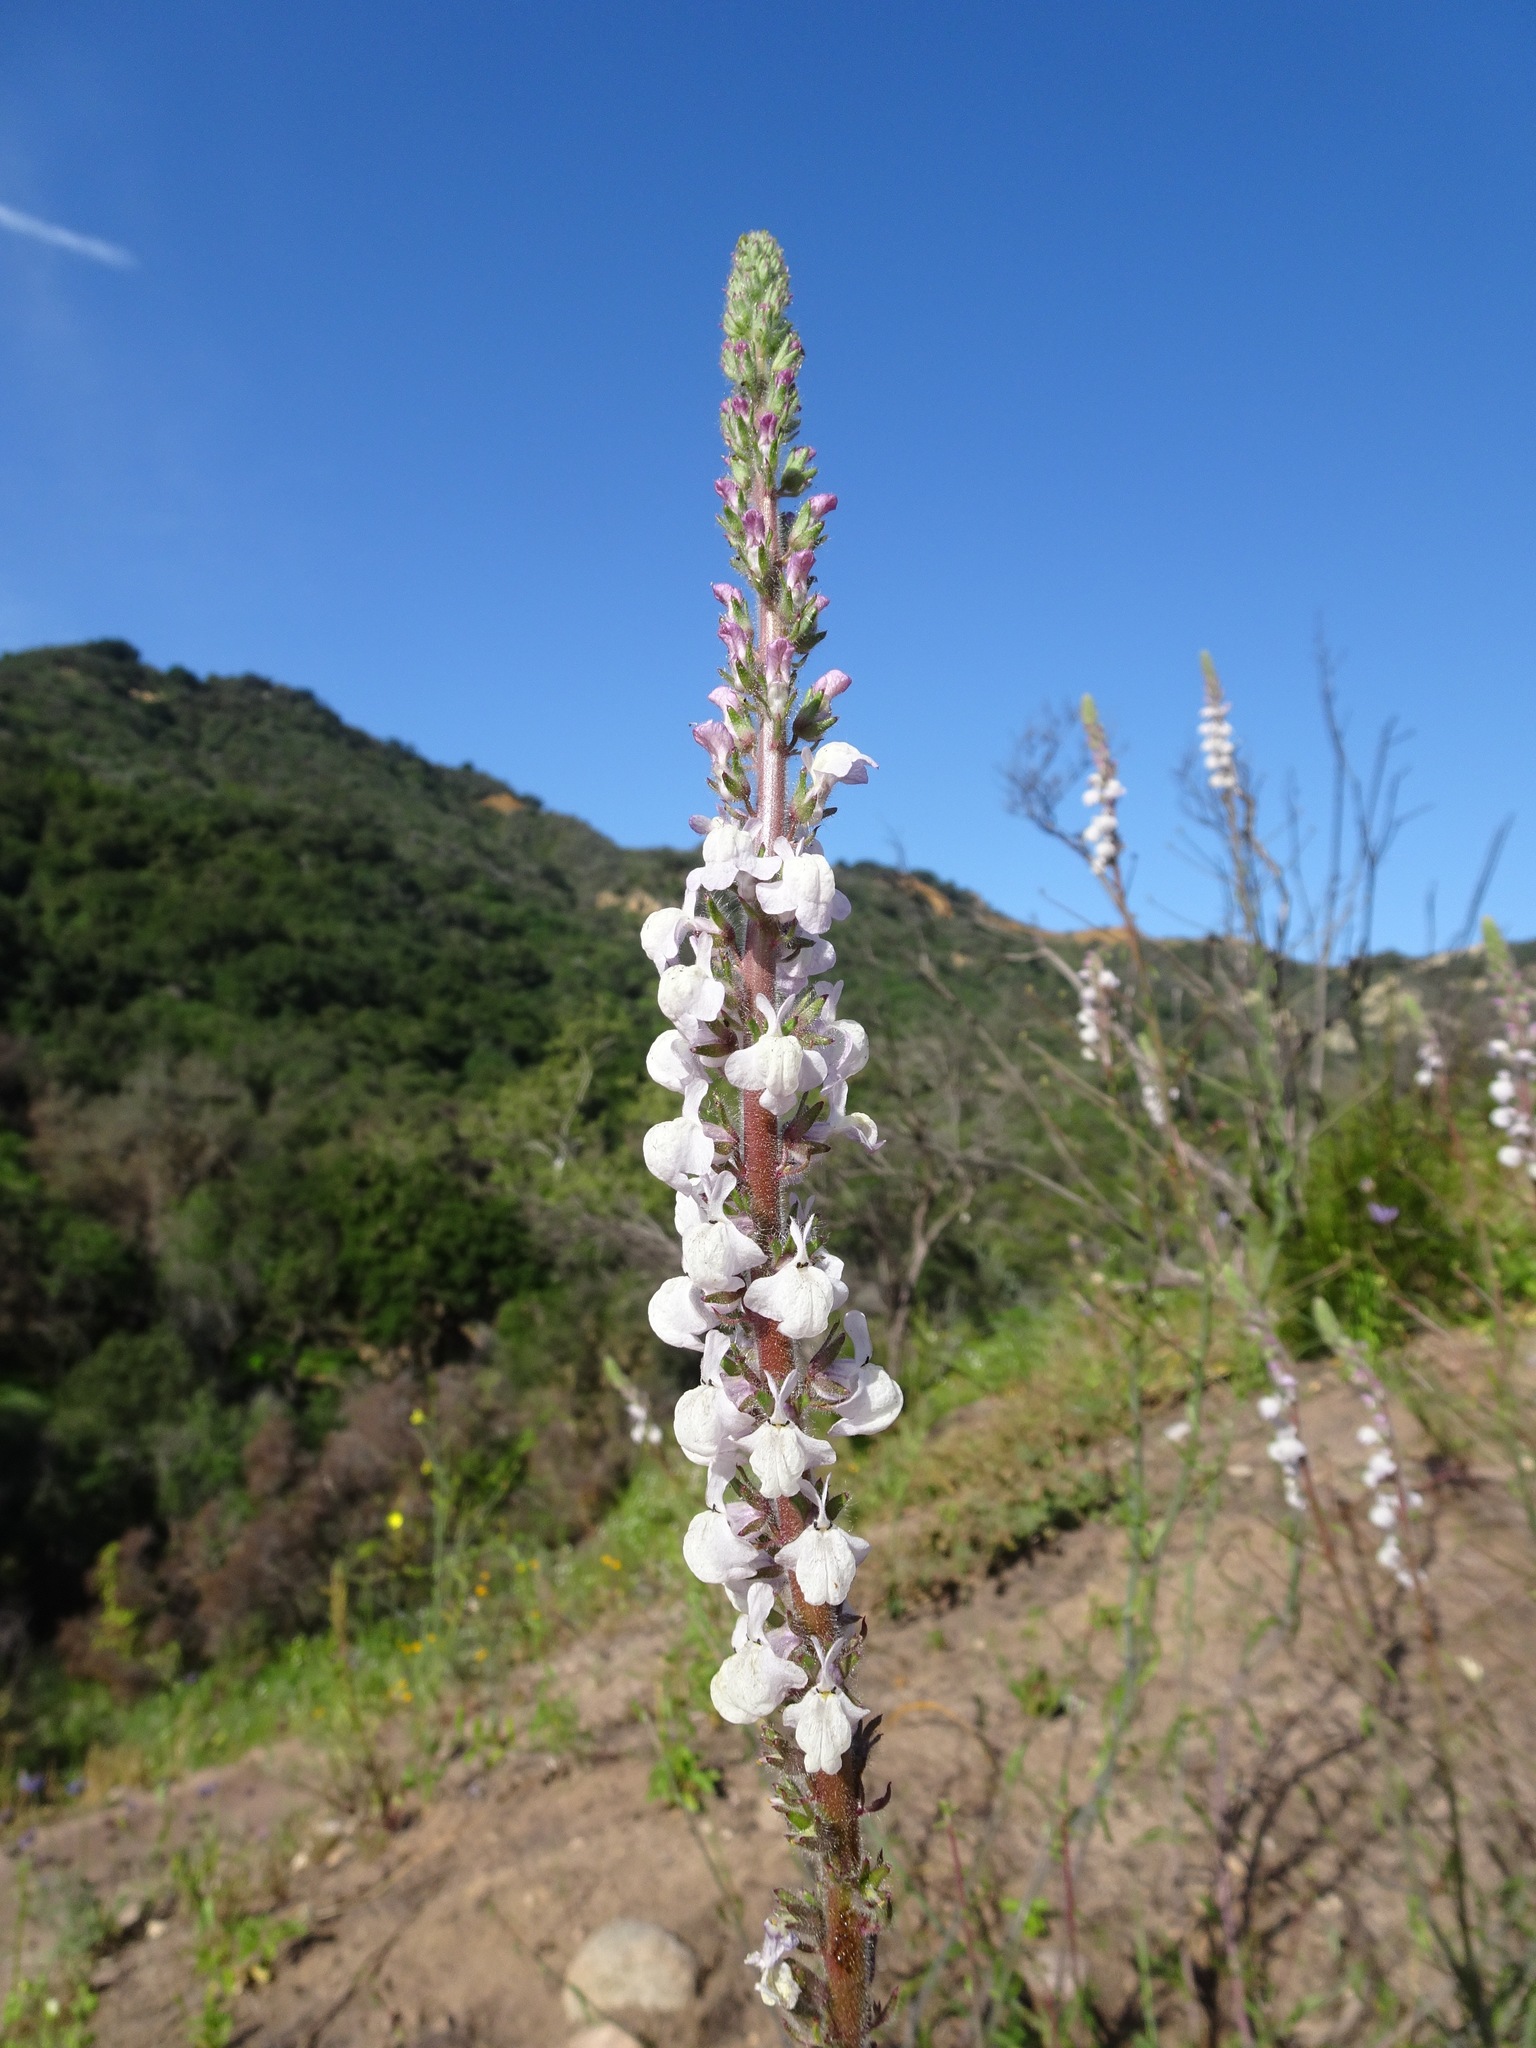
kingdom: Plantae
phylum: Tracheophyta
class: Magnoliopsida
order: Lamiales
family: Plantaginaceae
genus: Sairocarpus
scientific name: Sairocarpus coulterianus
